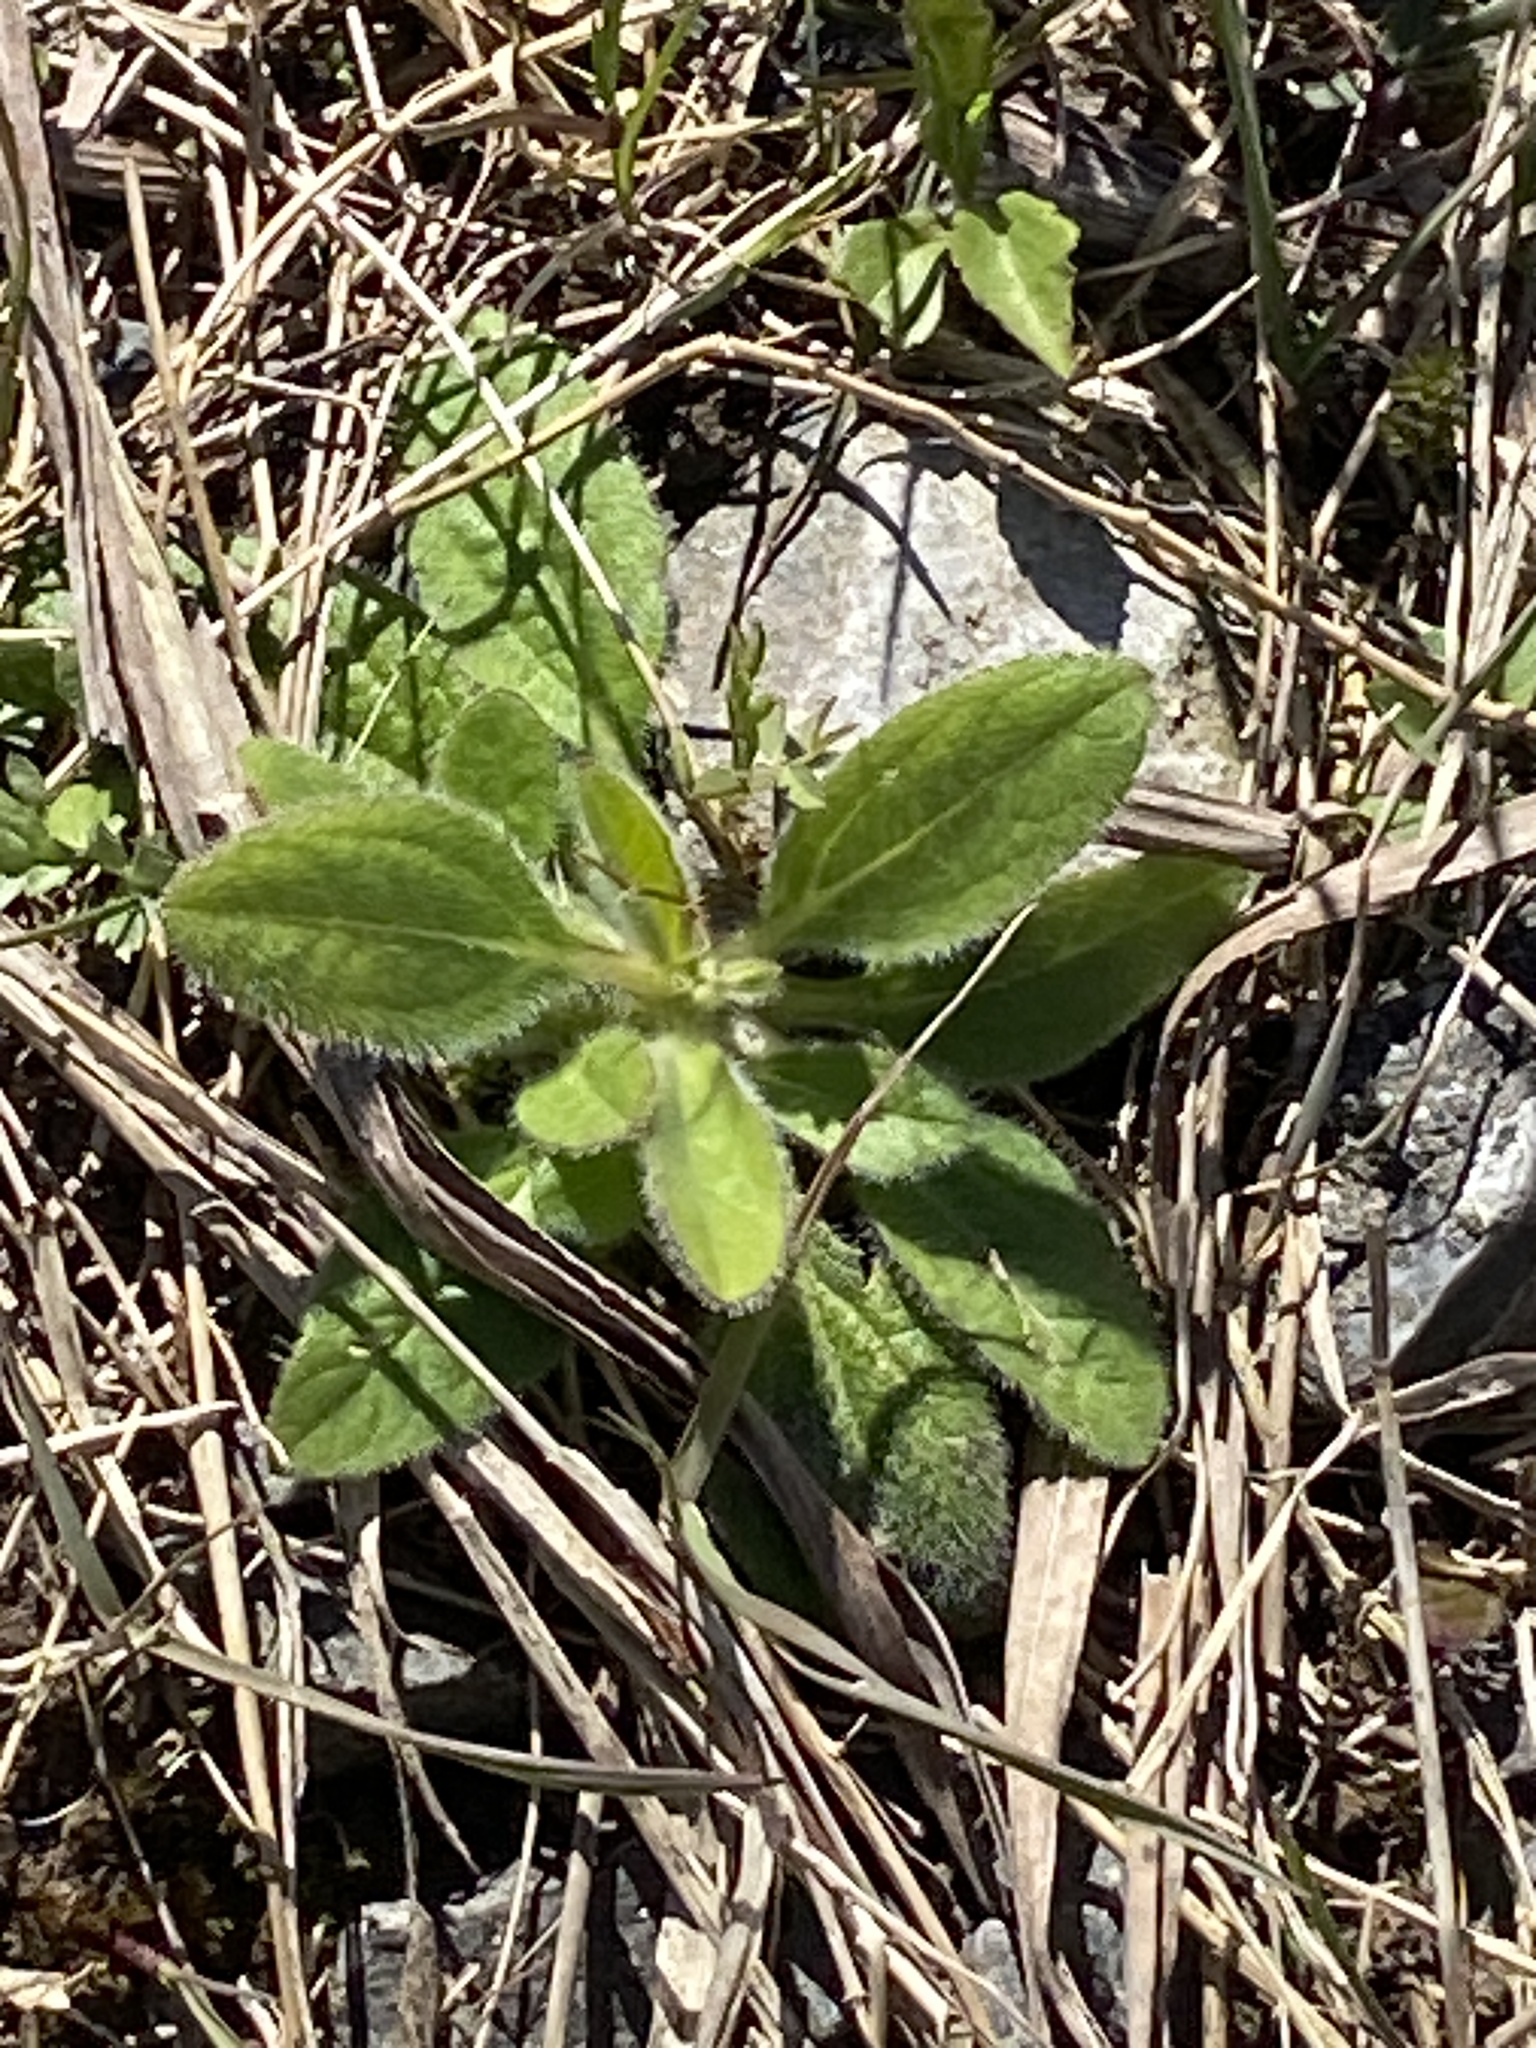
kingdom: Plantae
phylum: Tracheophyta
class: Magnoliopsida
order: Asterales
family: Asteraceae
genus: Rudbeckia
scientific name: Rudbeckia hirta
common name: Black-eyed-susan
